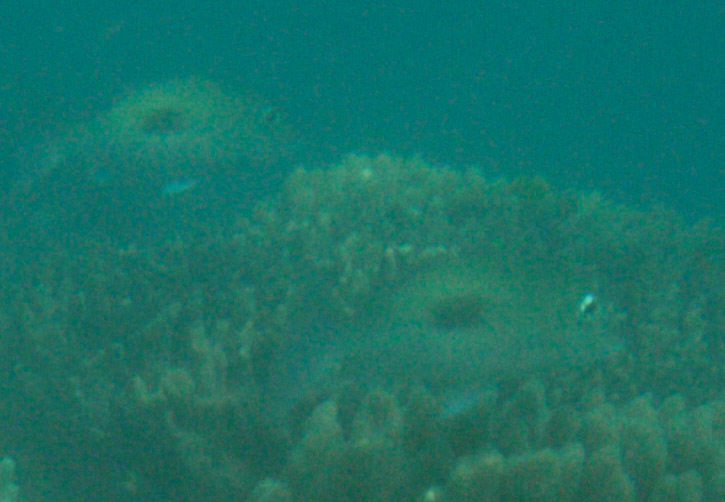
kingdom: Animalia
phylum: Chordata
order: Perciformes
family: Lethrinidae
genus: Lethrinus
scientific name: Lethrinus harak
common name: Blackspot emperor
